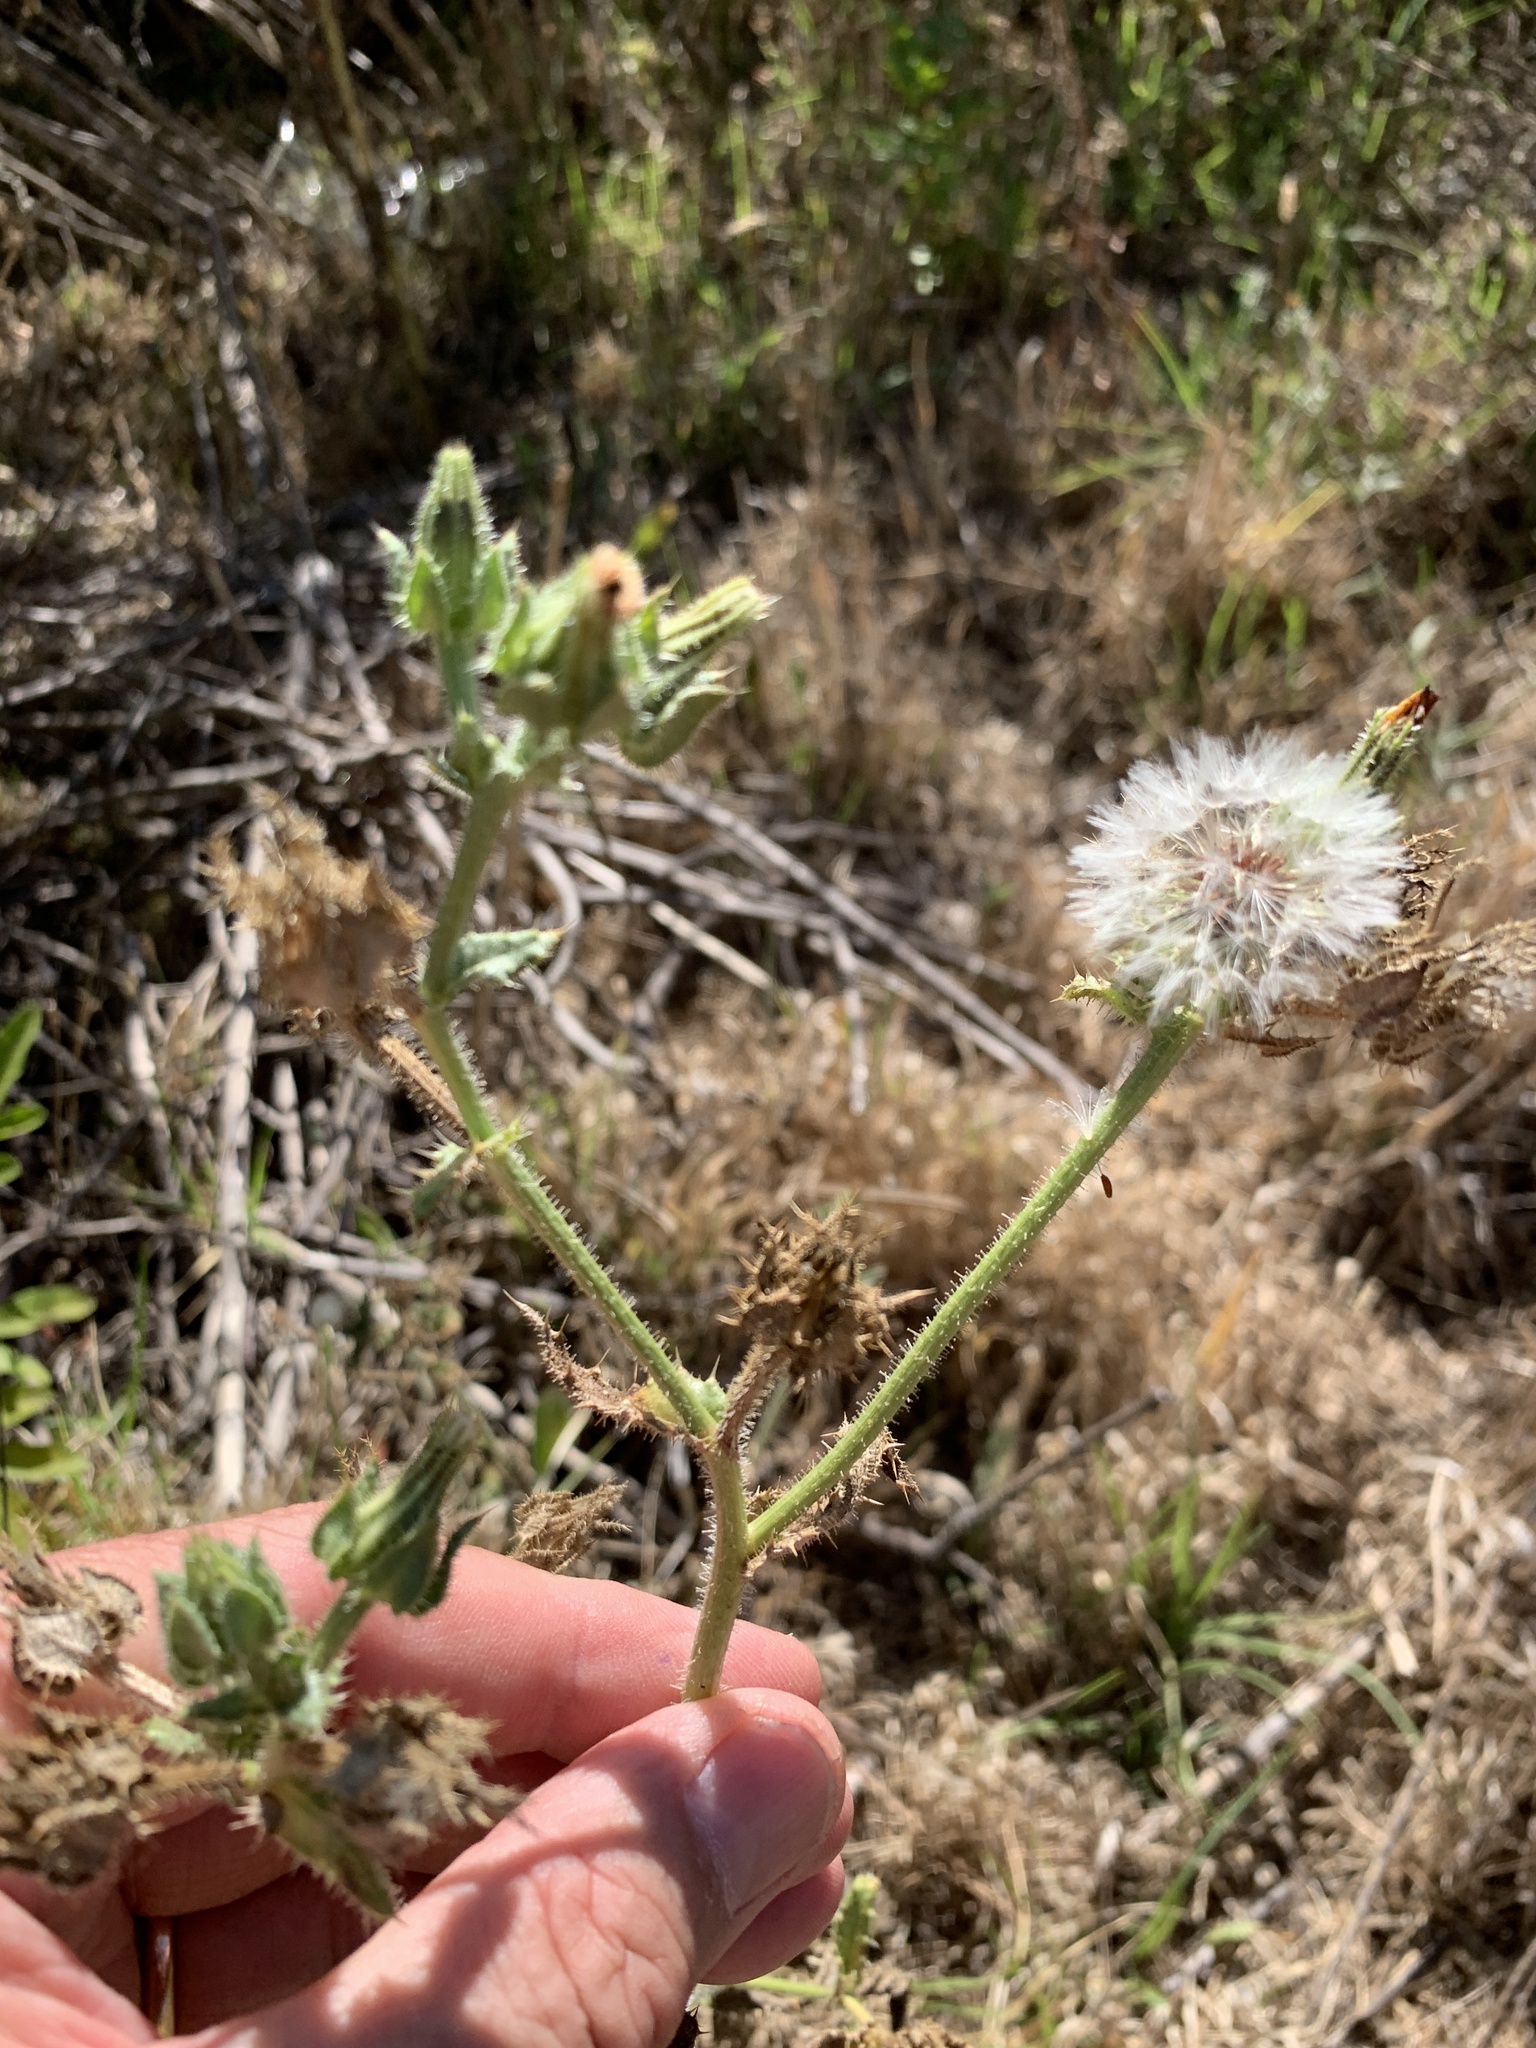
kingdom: Plantae
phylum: Tracheophyta
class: Magnoliopsida
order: Asterales
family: Asteraceae
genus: Helminthotheca
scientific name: Helminthotheca echioides
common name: Ox-tongue
